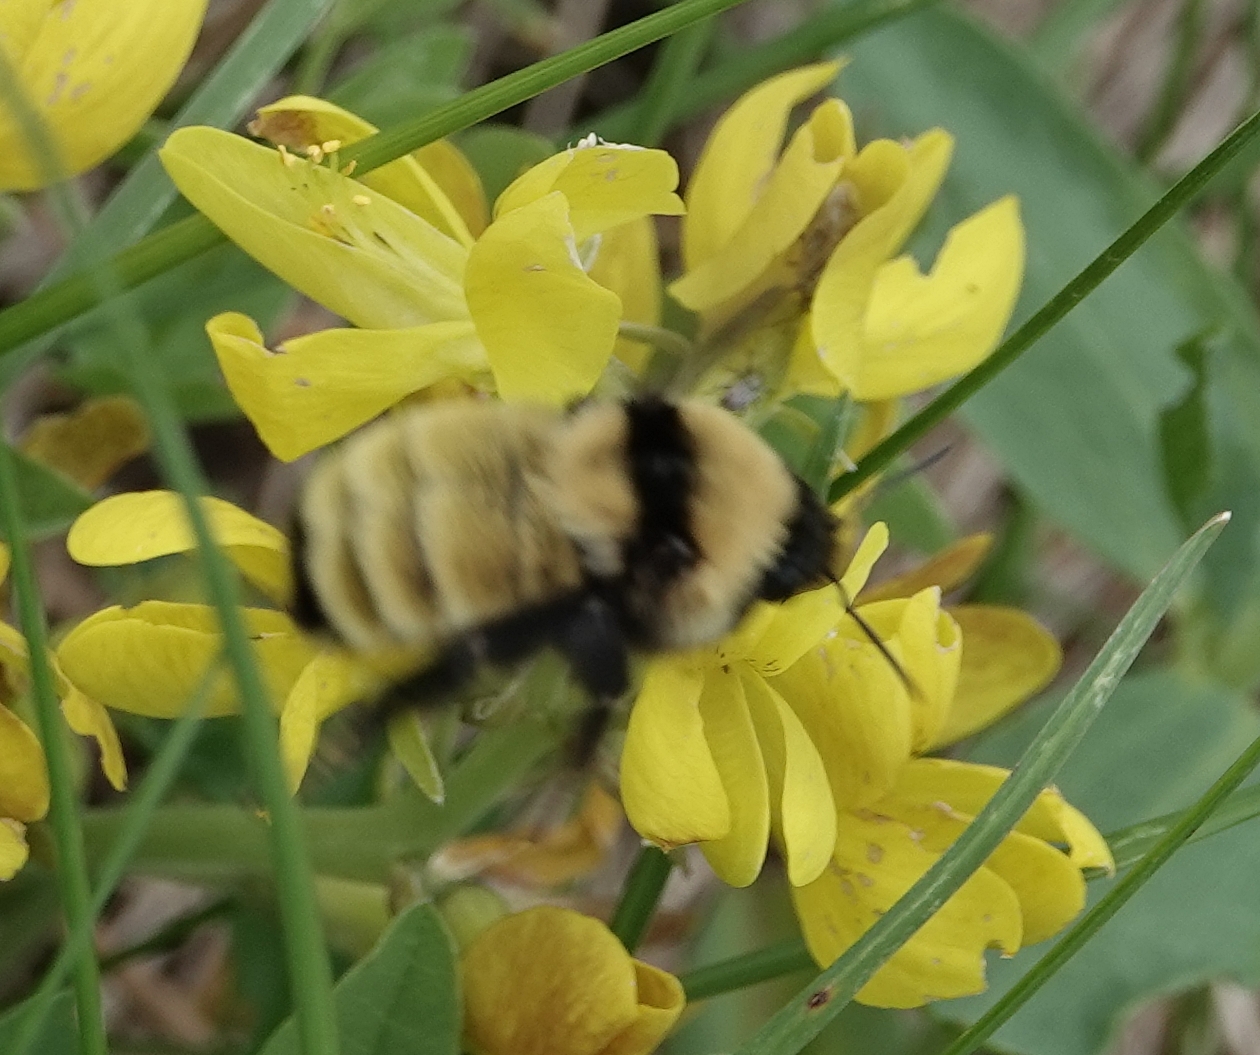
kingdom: Animalia
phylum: Arthropoda
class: Insecta
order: Hymenoptera
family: Apidae
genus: Bombus
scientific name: Bombus fervidus
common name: Yellow bumble bee
